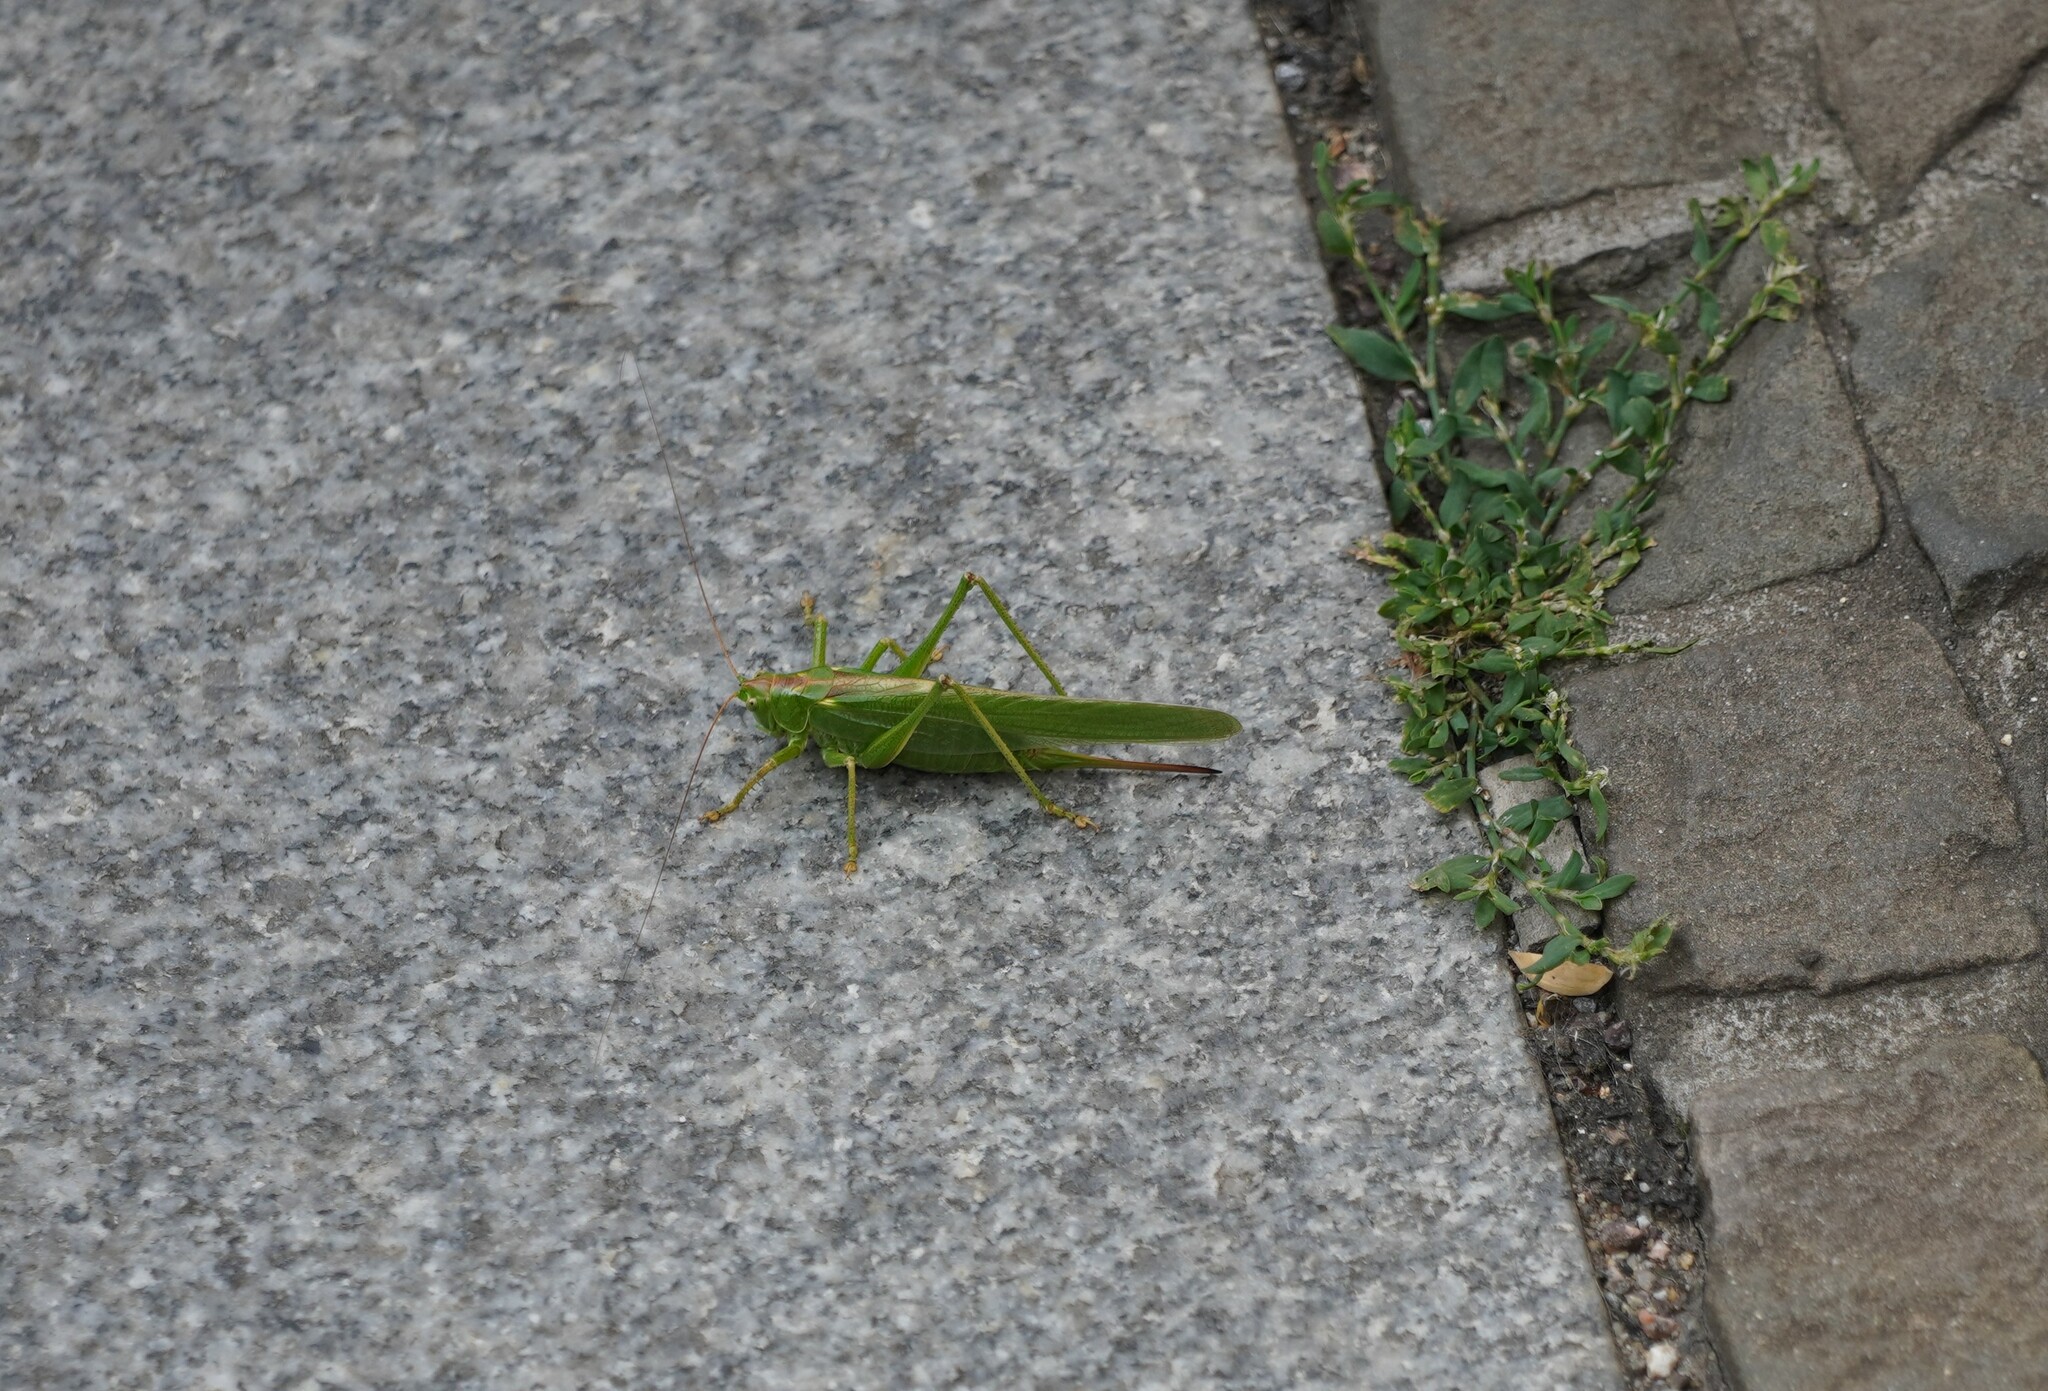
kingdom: Animalia
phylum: Arthropoda
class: Insecta
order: Orthoptera
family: Tettigoniidae
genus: Tettigonia
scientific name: Tettigonia viridissima
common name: Great green bush-cricket
